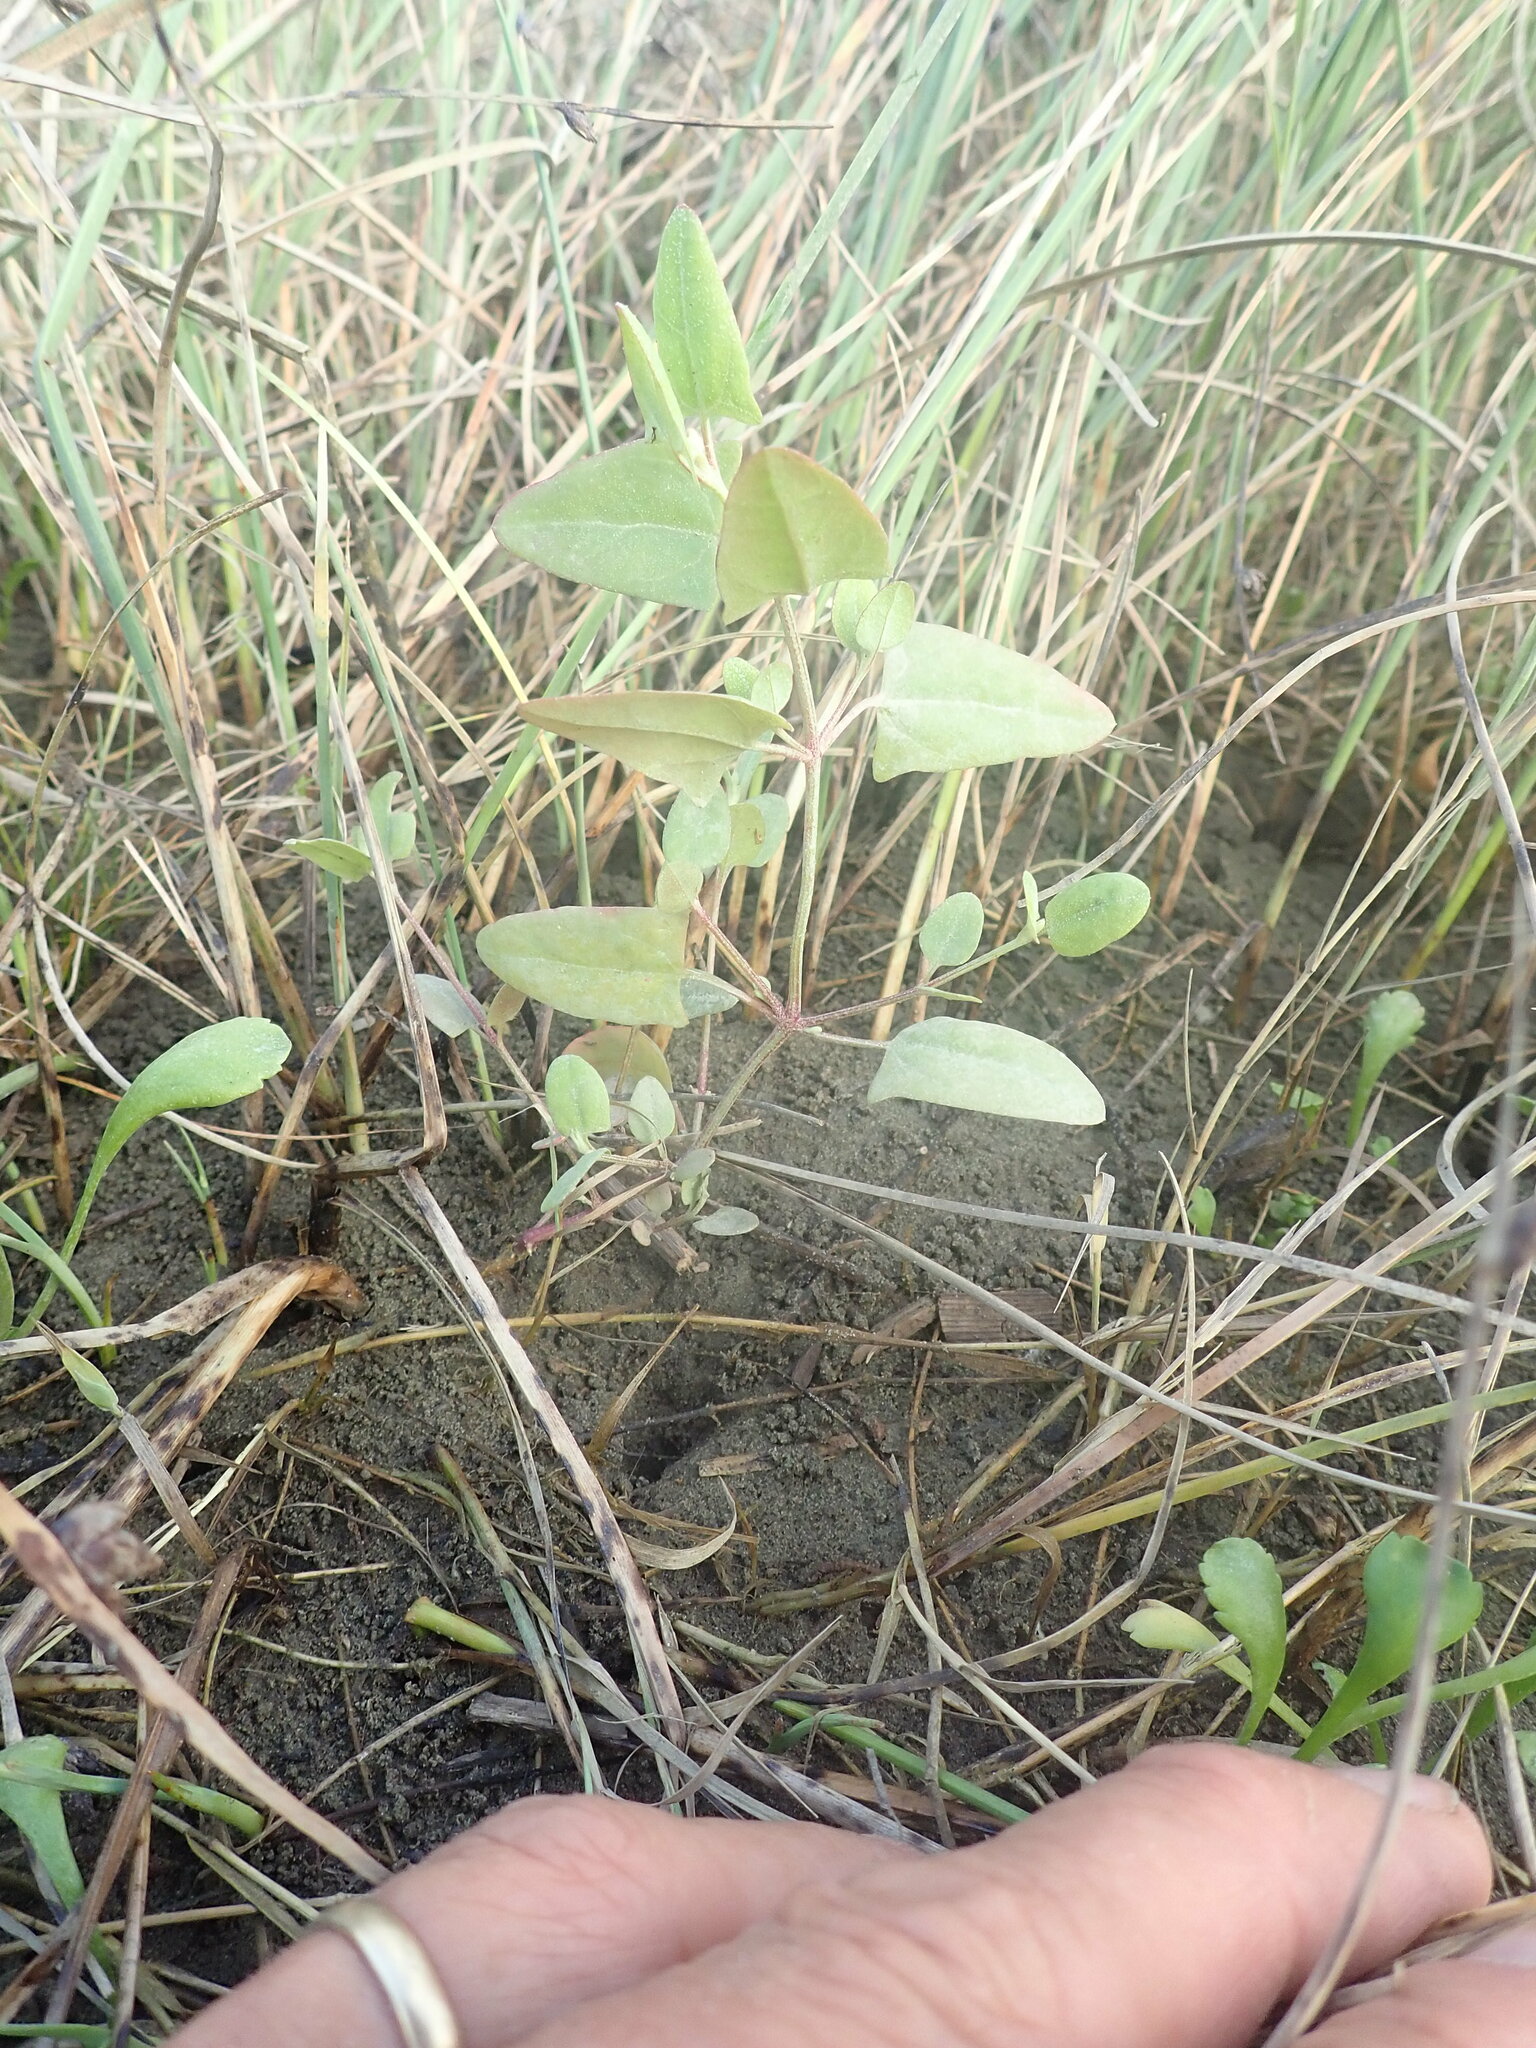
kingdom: Plantae
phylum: Tracheophyta
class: Magnoliopsida
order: Caryophyllales
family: Amaranthaceae
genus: Atriplex
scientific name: Atriplex prostrata
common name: Spear-leaved orache
